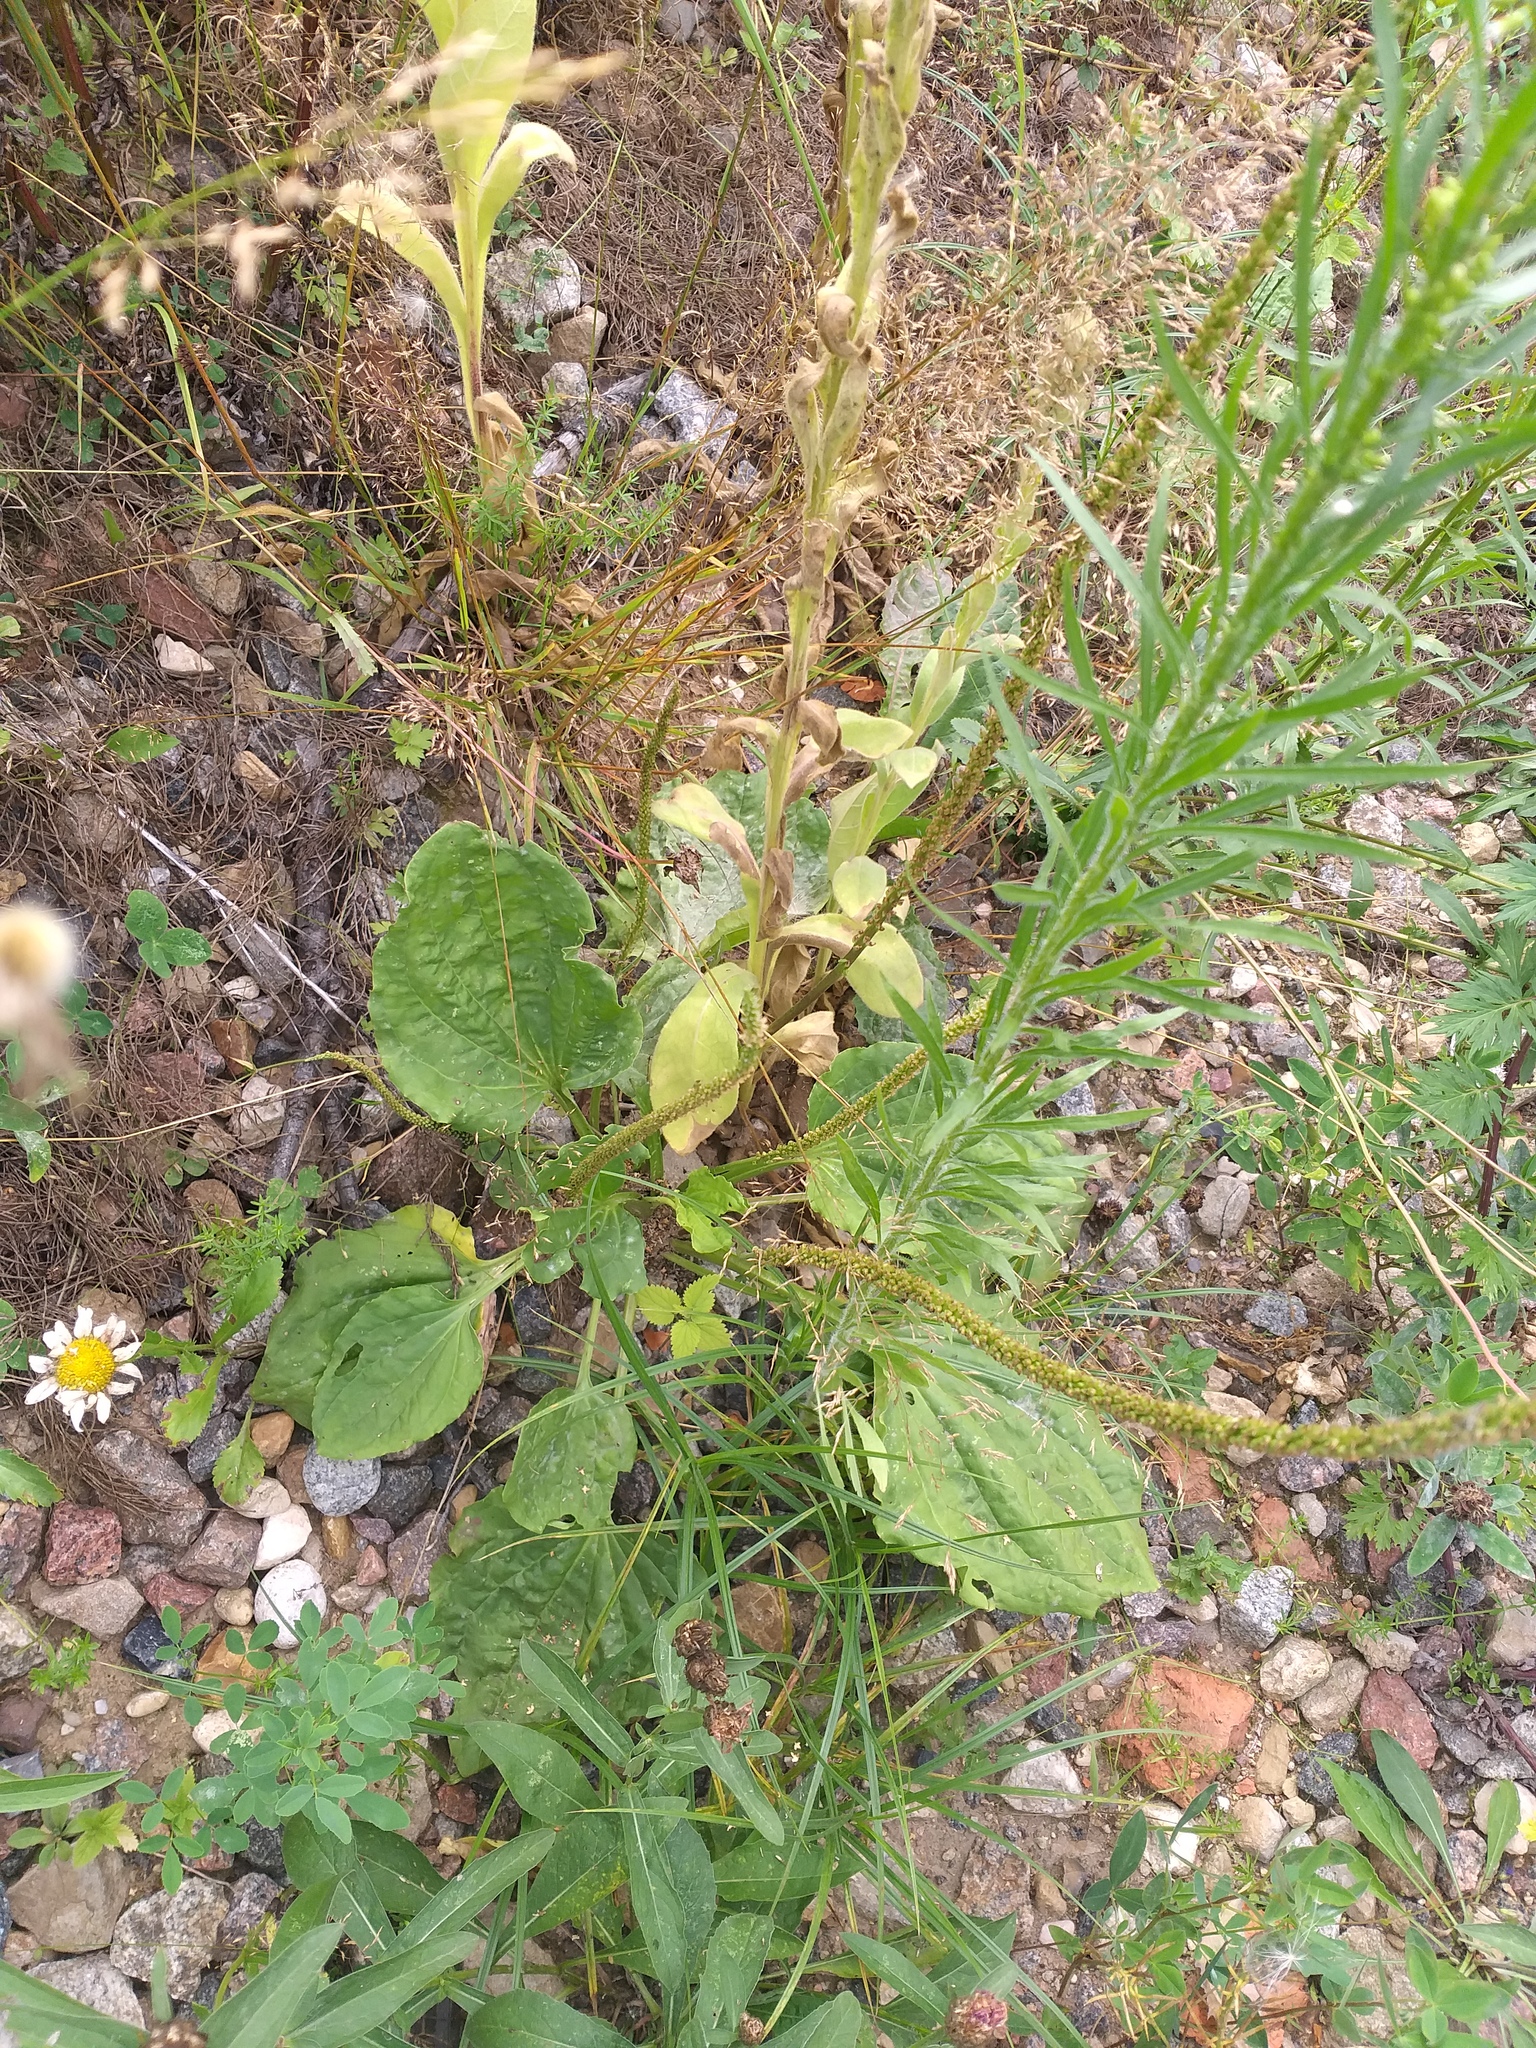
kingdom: Plantae
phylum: Tracheophyta
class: Magnoliopsida
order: Lamiales
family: Plantaginaceae
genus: Plantago
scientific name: Plantago major
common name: Common plantain
